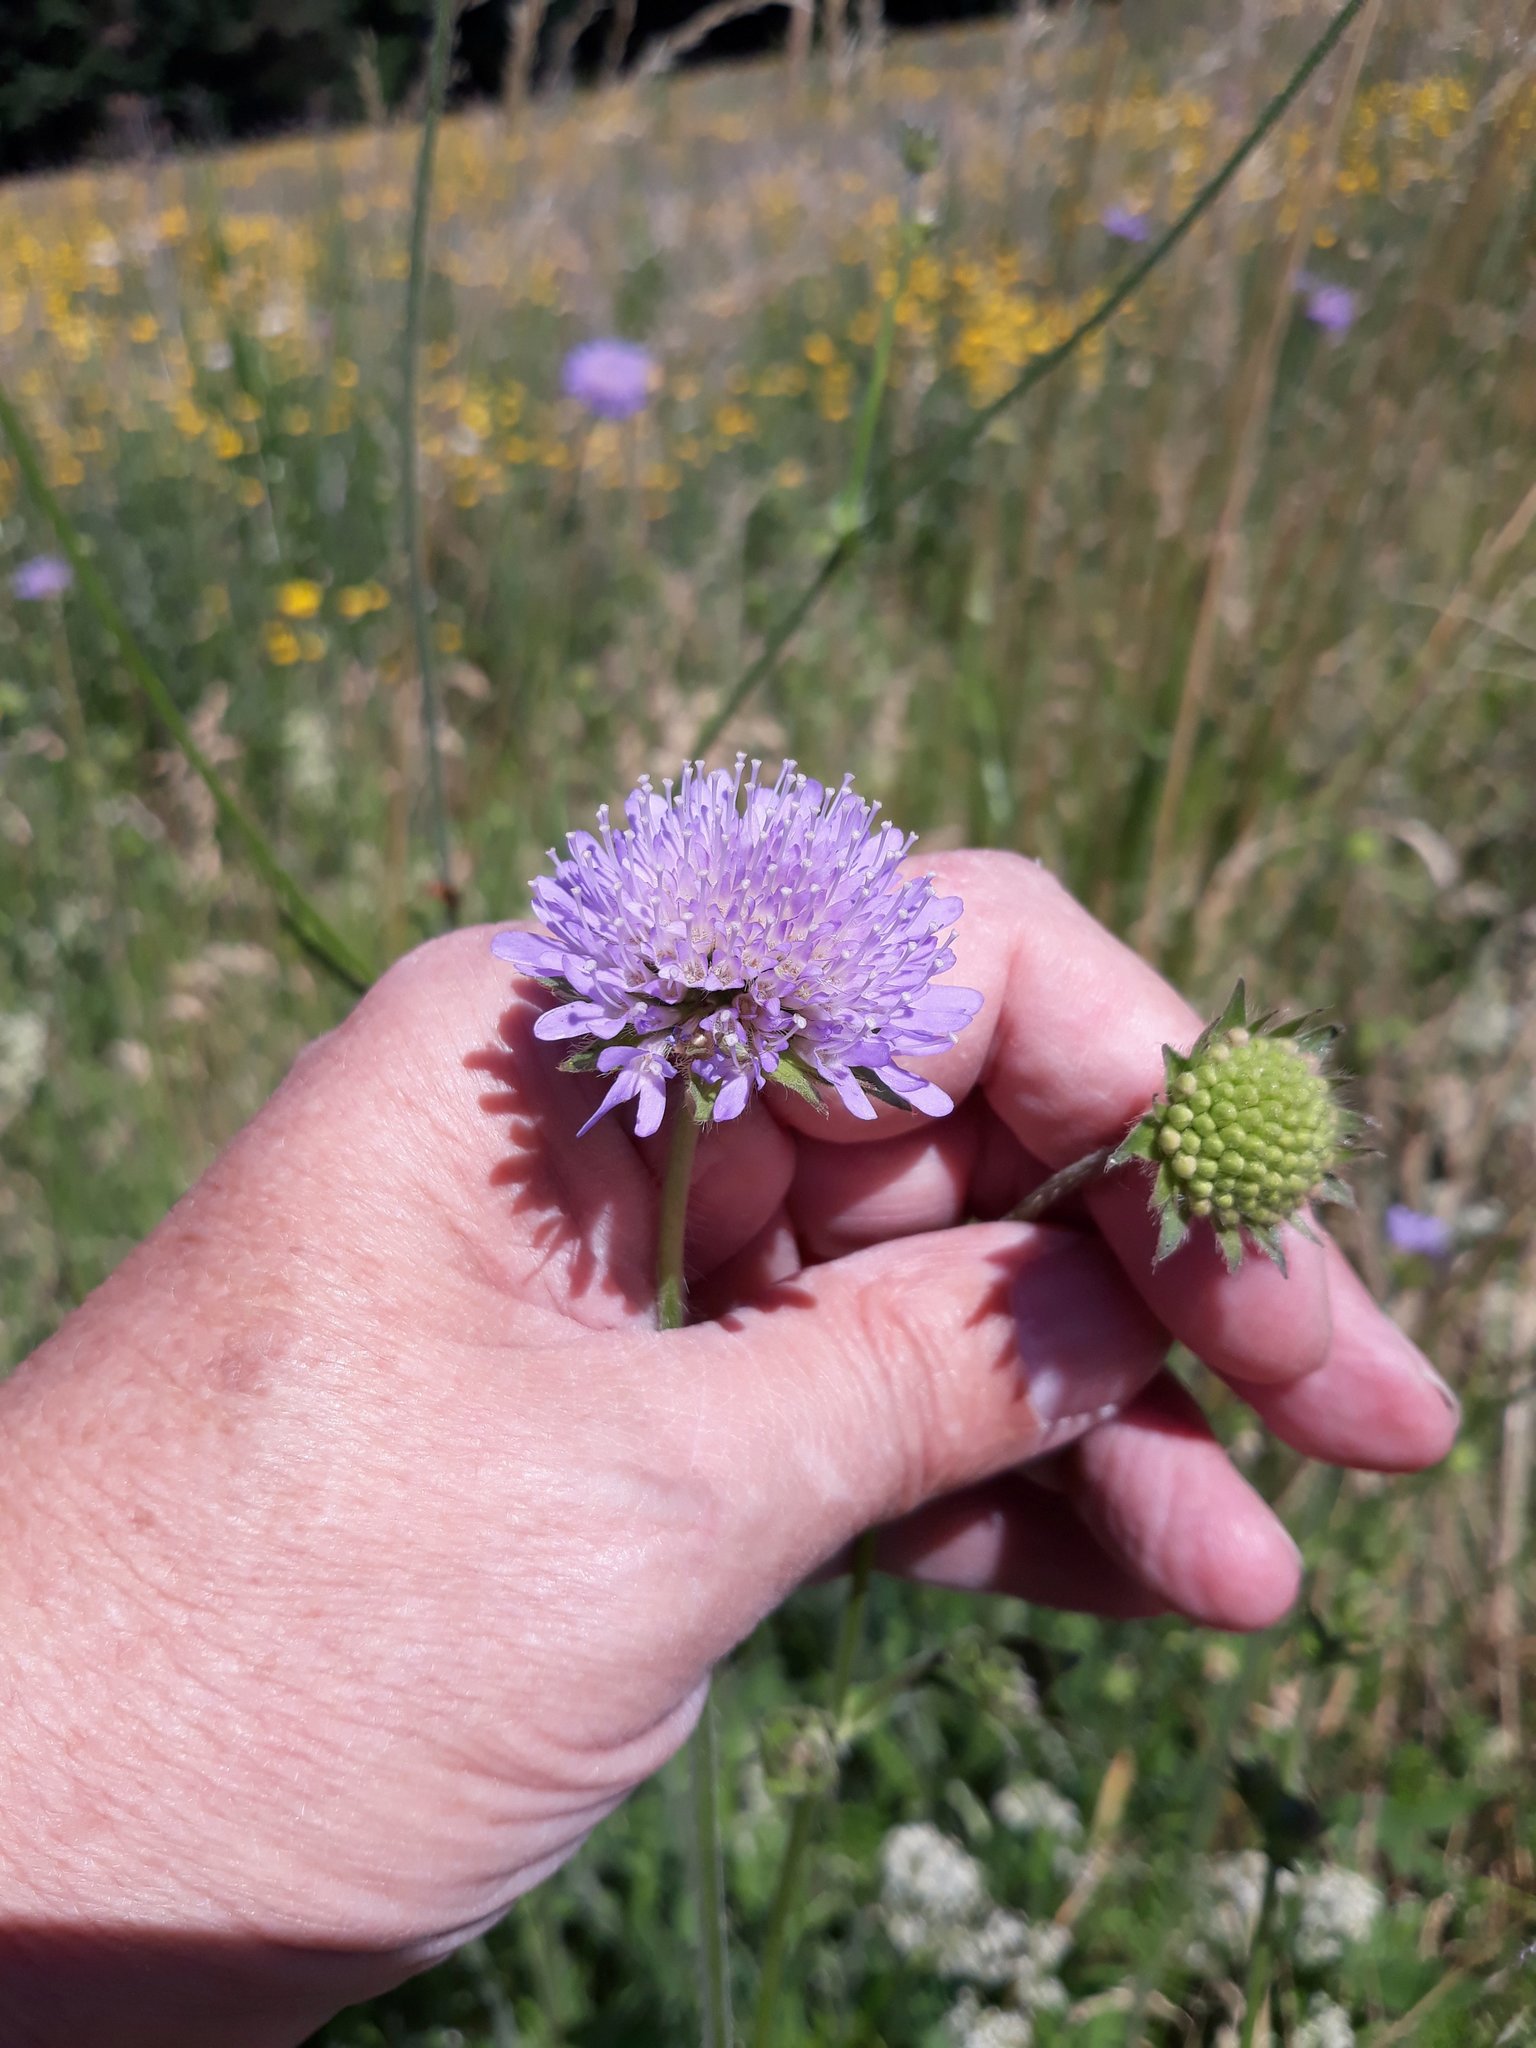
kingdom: Plantae
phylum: Tracheophyta
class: Magnoliopsida
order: Dipsacales
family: Caprifoliaceae
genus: Knautia
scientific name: Knautia arvensis
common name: Field scabiosa
